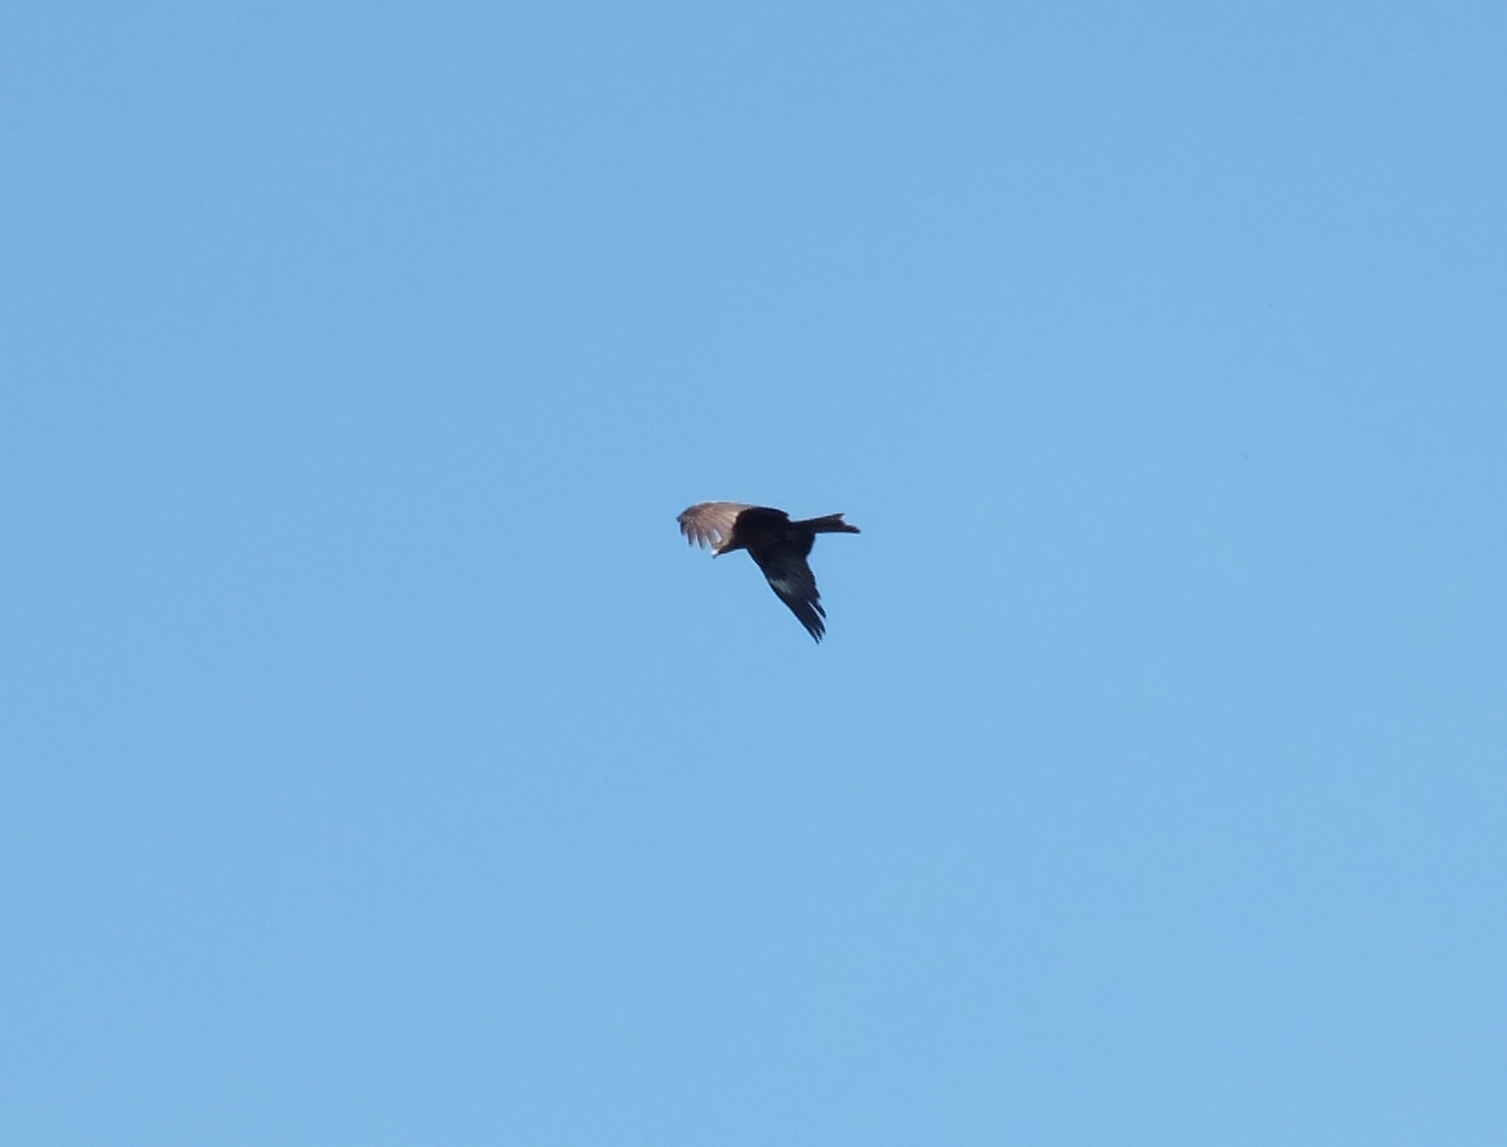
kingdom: Animalia
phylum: Chordata
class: Aves
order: Accipitriformes
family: Accipitridae
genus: Milvus
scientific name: Milvus migrans
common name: Black kite
